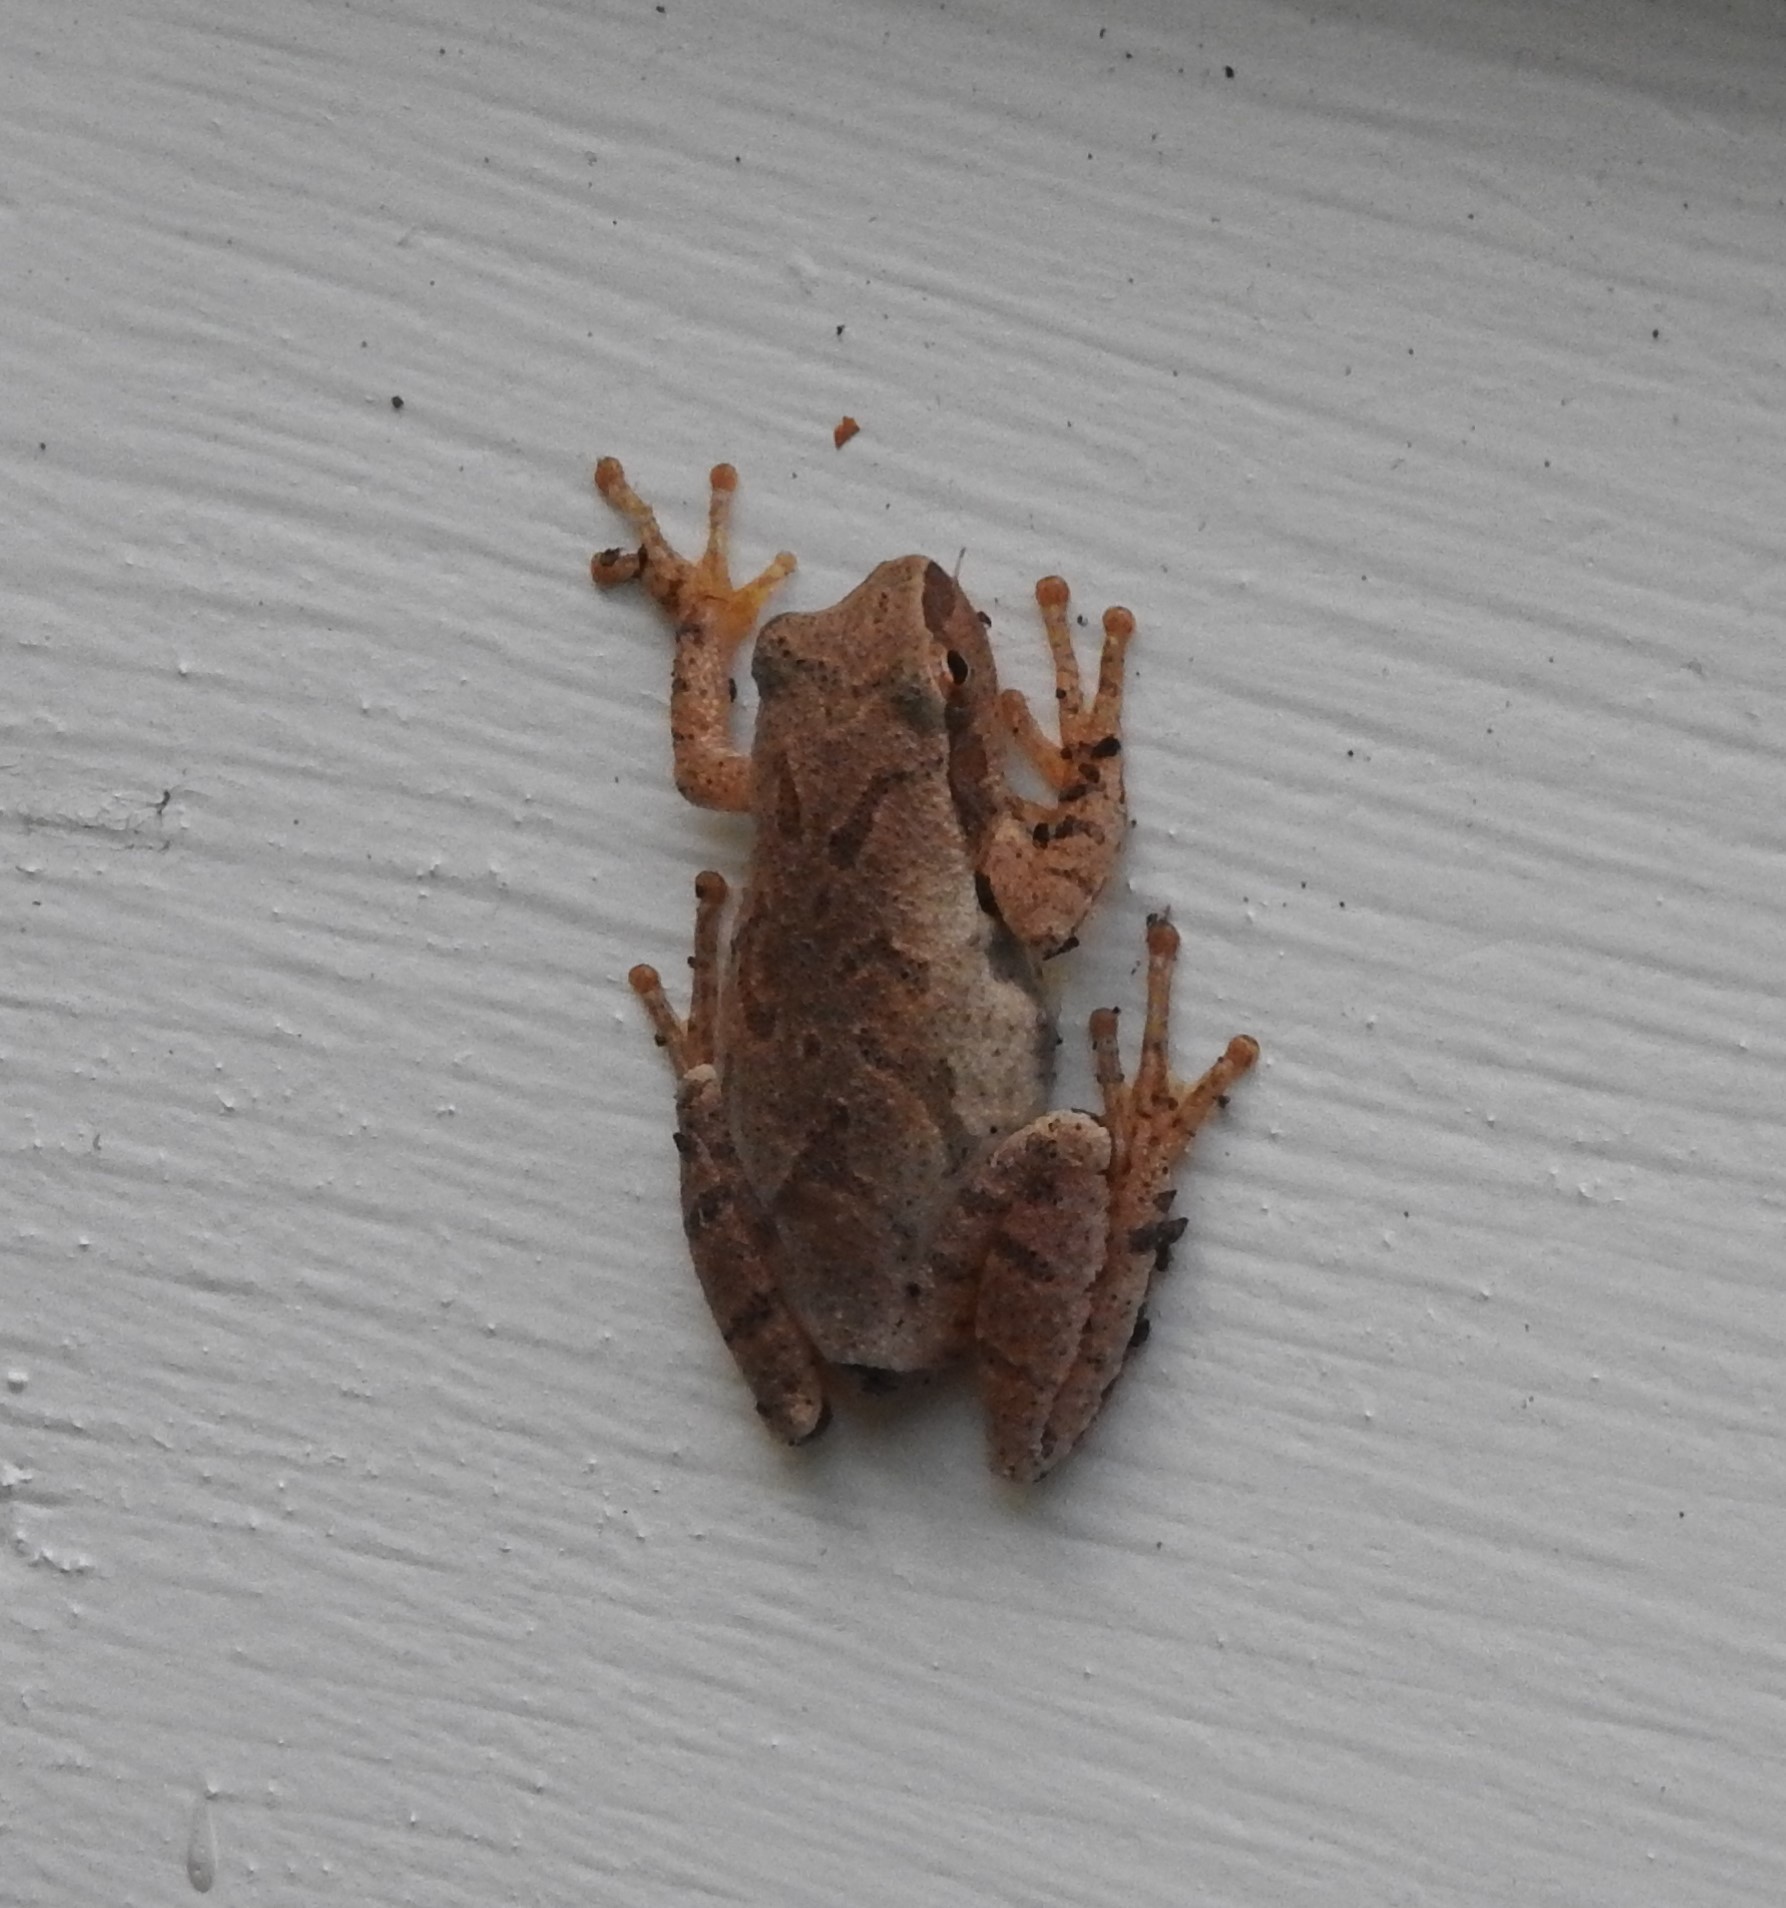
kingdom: Animalia
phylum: Chordata
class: Amphibia
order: Anura
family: Hylidae
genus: Pseudacris
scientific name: Pseudacris crucifer
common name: Spring peeper
